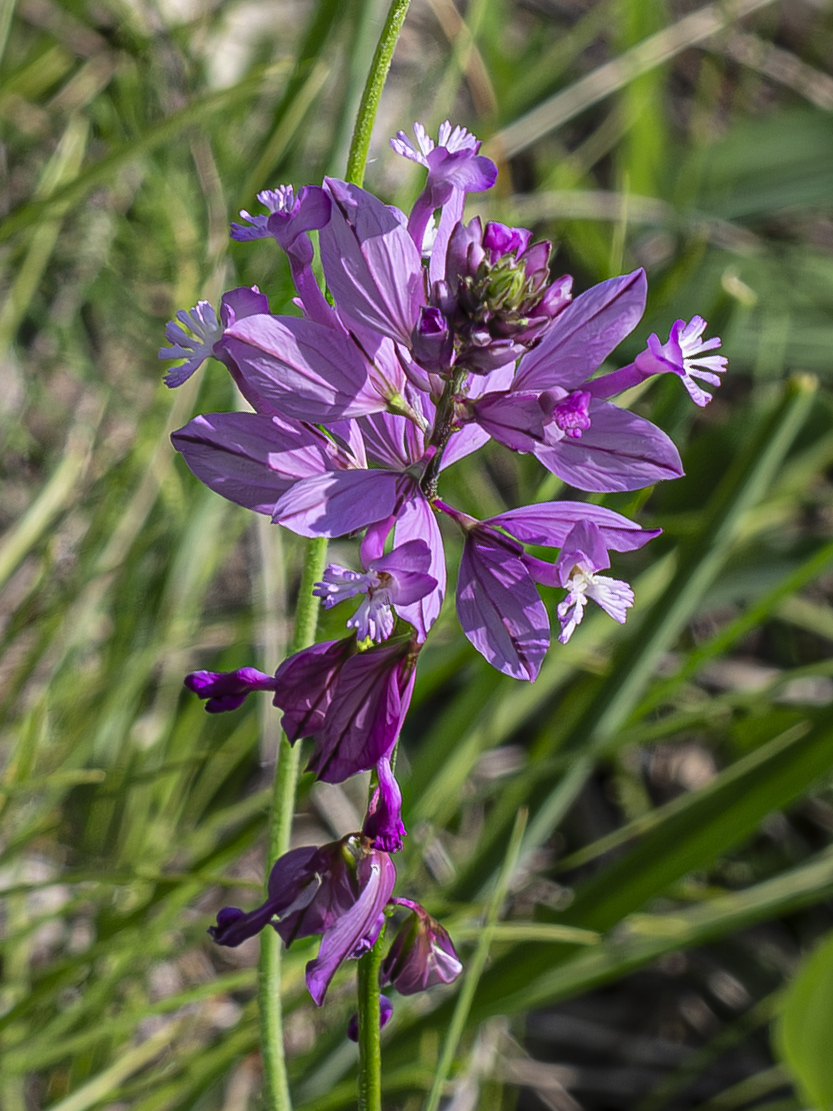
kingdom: Plantae
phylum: Tracheophyta
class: Magnoliopsida
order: Fabales
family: Polygalaceae
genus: Polygala
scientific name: Polygala major
